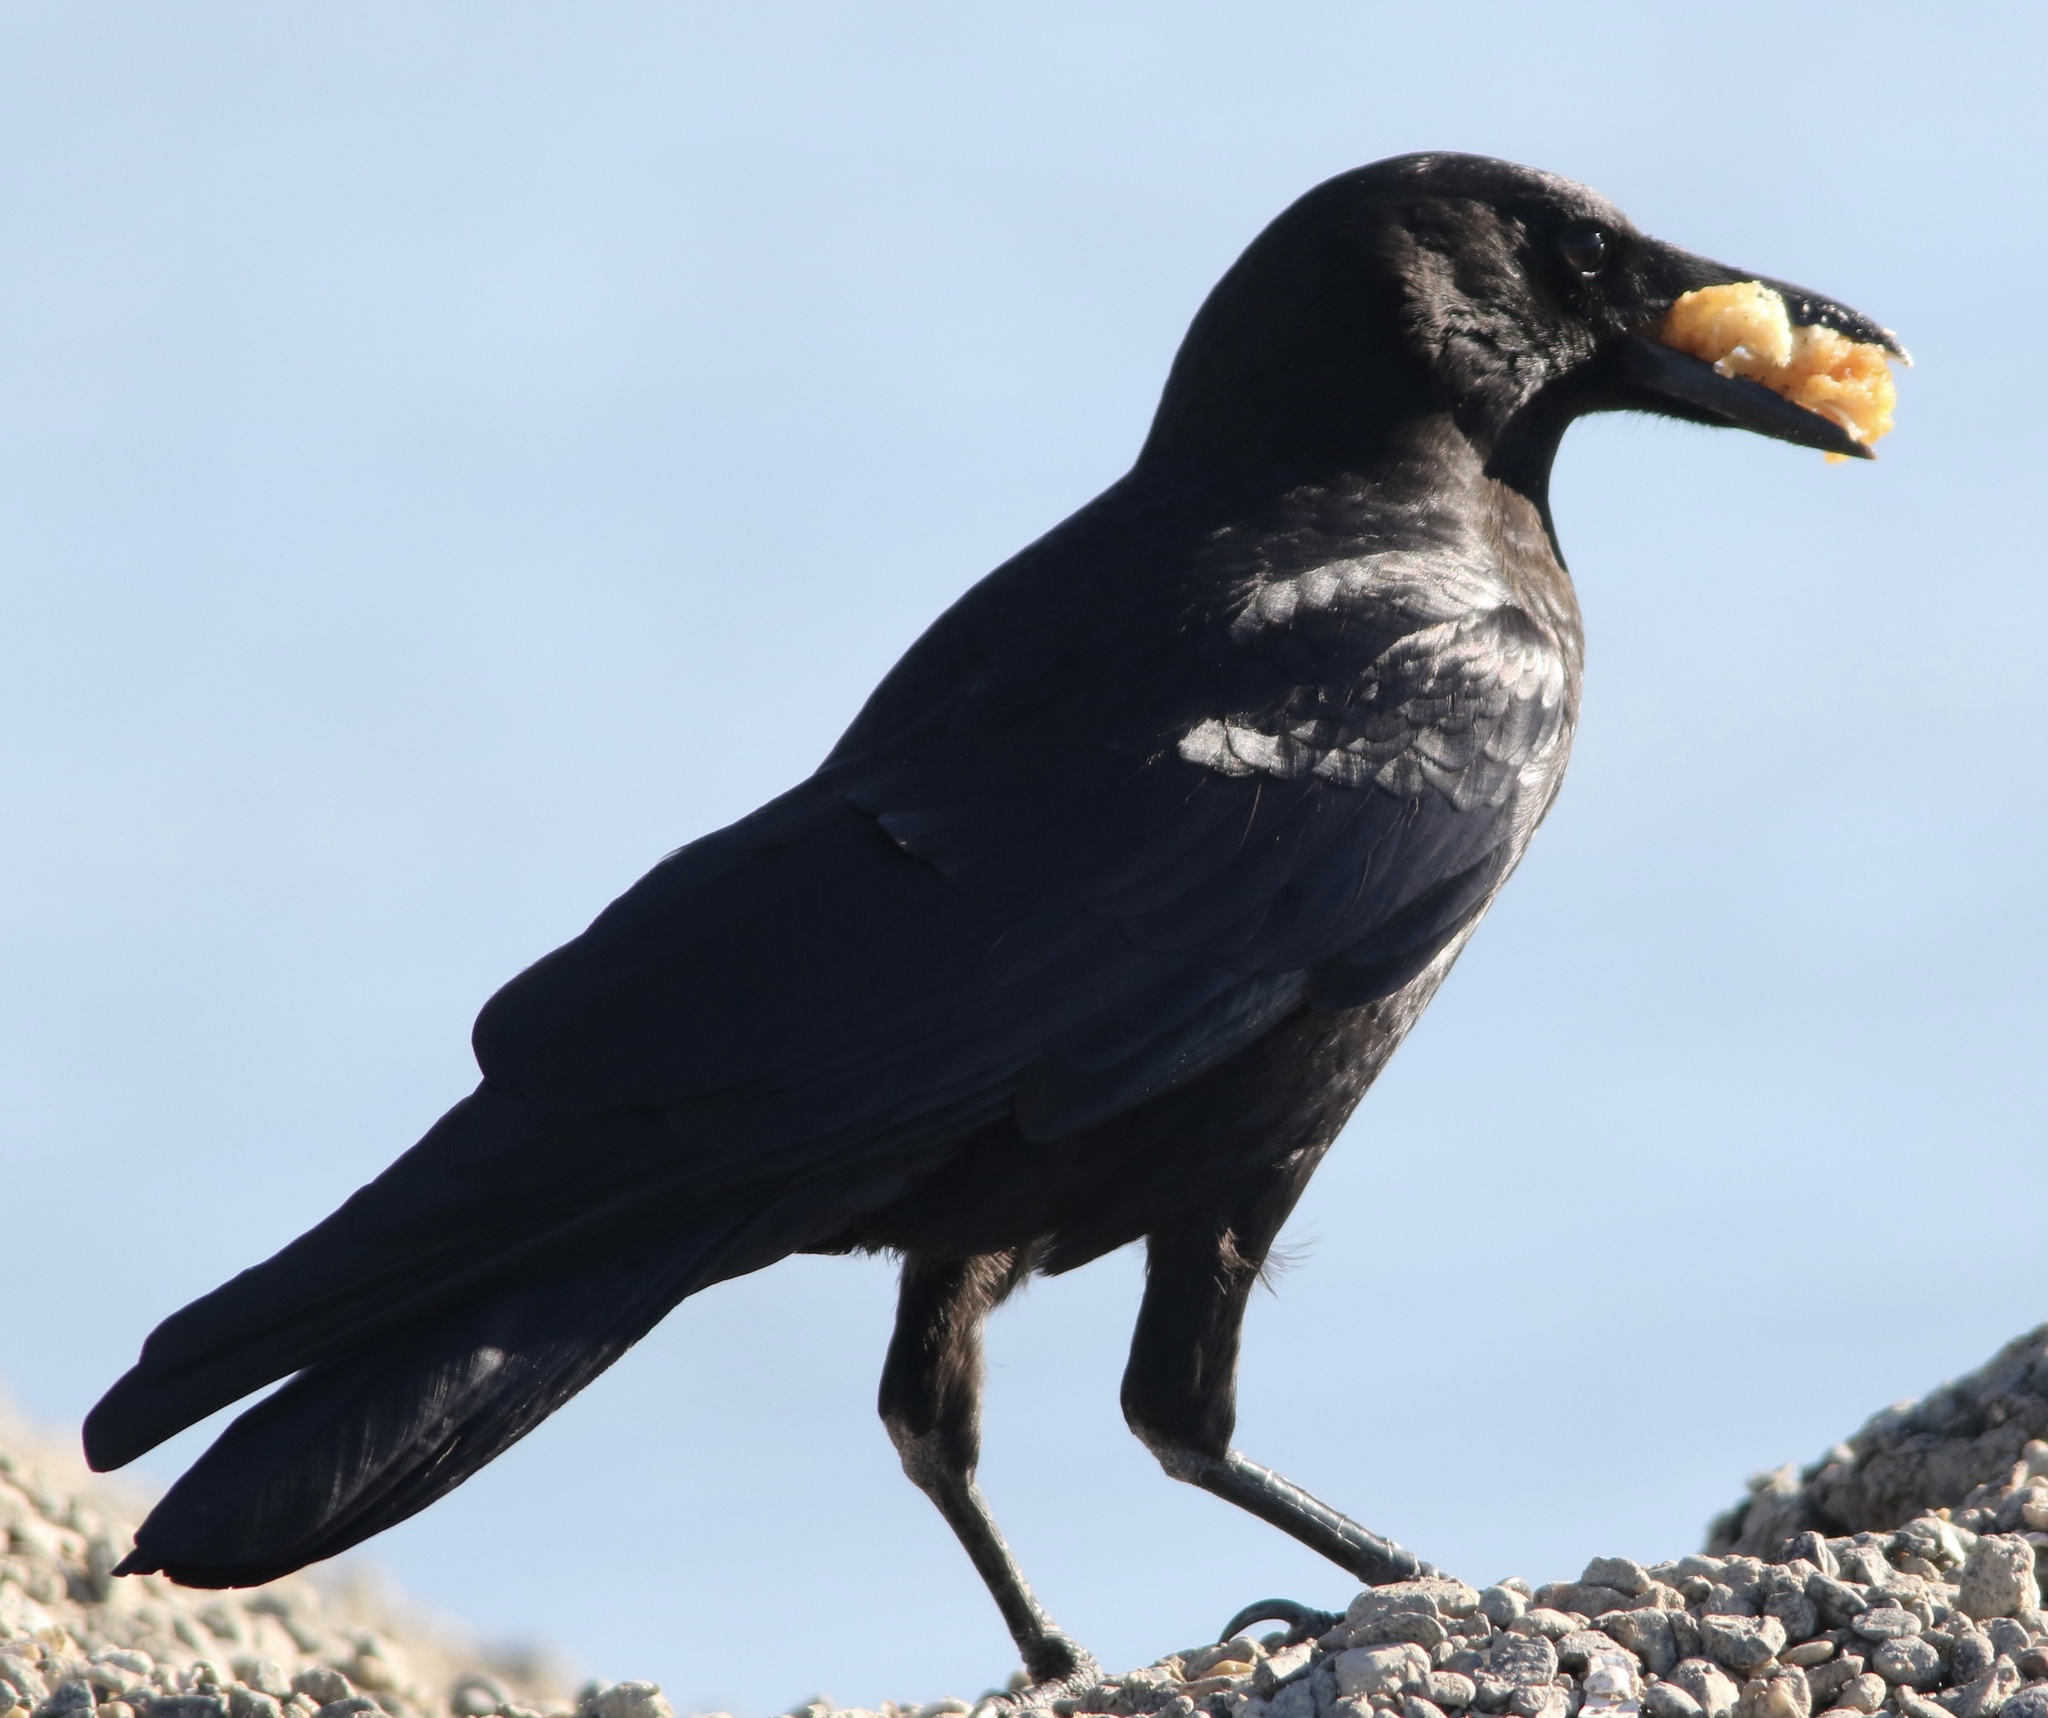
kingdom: Animalia
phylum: Chordata
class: Aves
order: Passeriformes
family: Corvidae
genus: Corvus
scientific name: Corvus brachyrhynchos
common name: American crow
